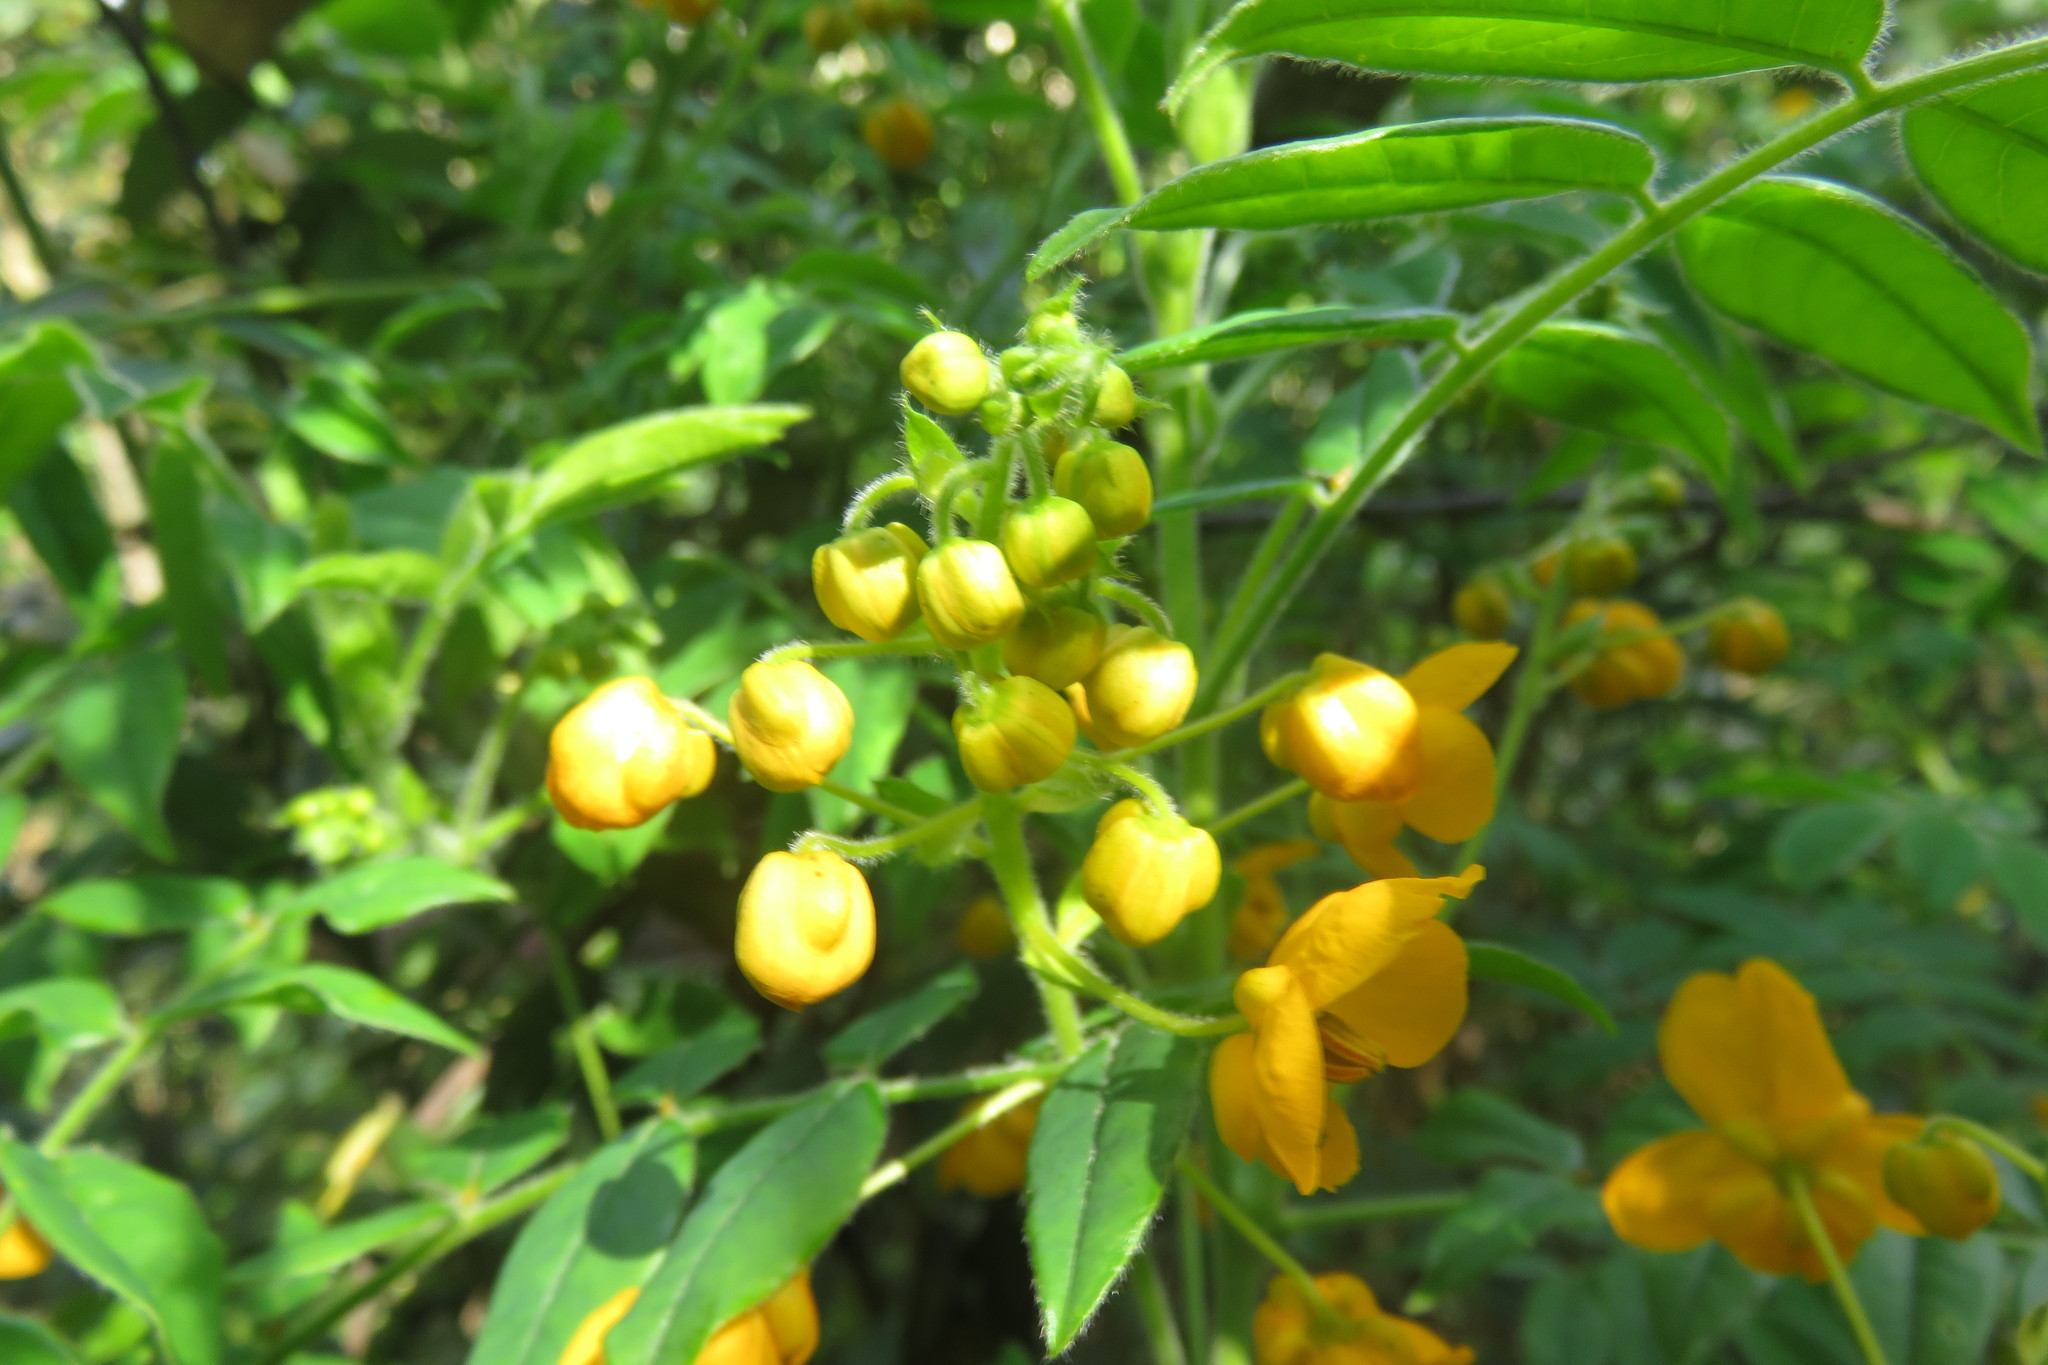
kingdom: Plantae
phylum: Tracheophyta
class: Magnoliopsida
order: Fabales
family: Fabaceae
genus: Senna
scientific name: Senna stipulacea
